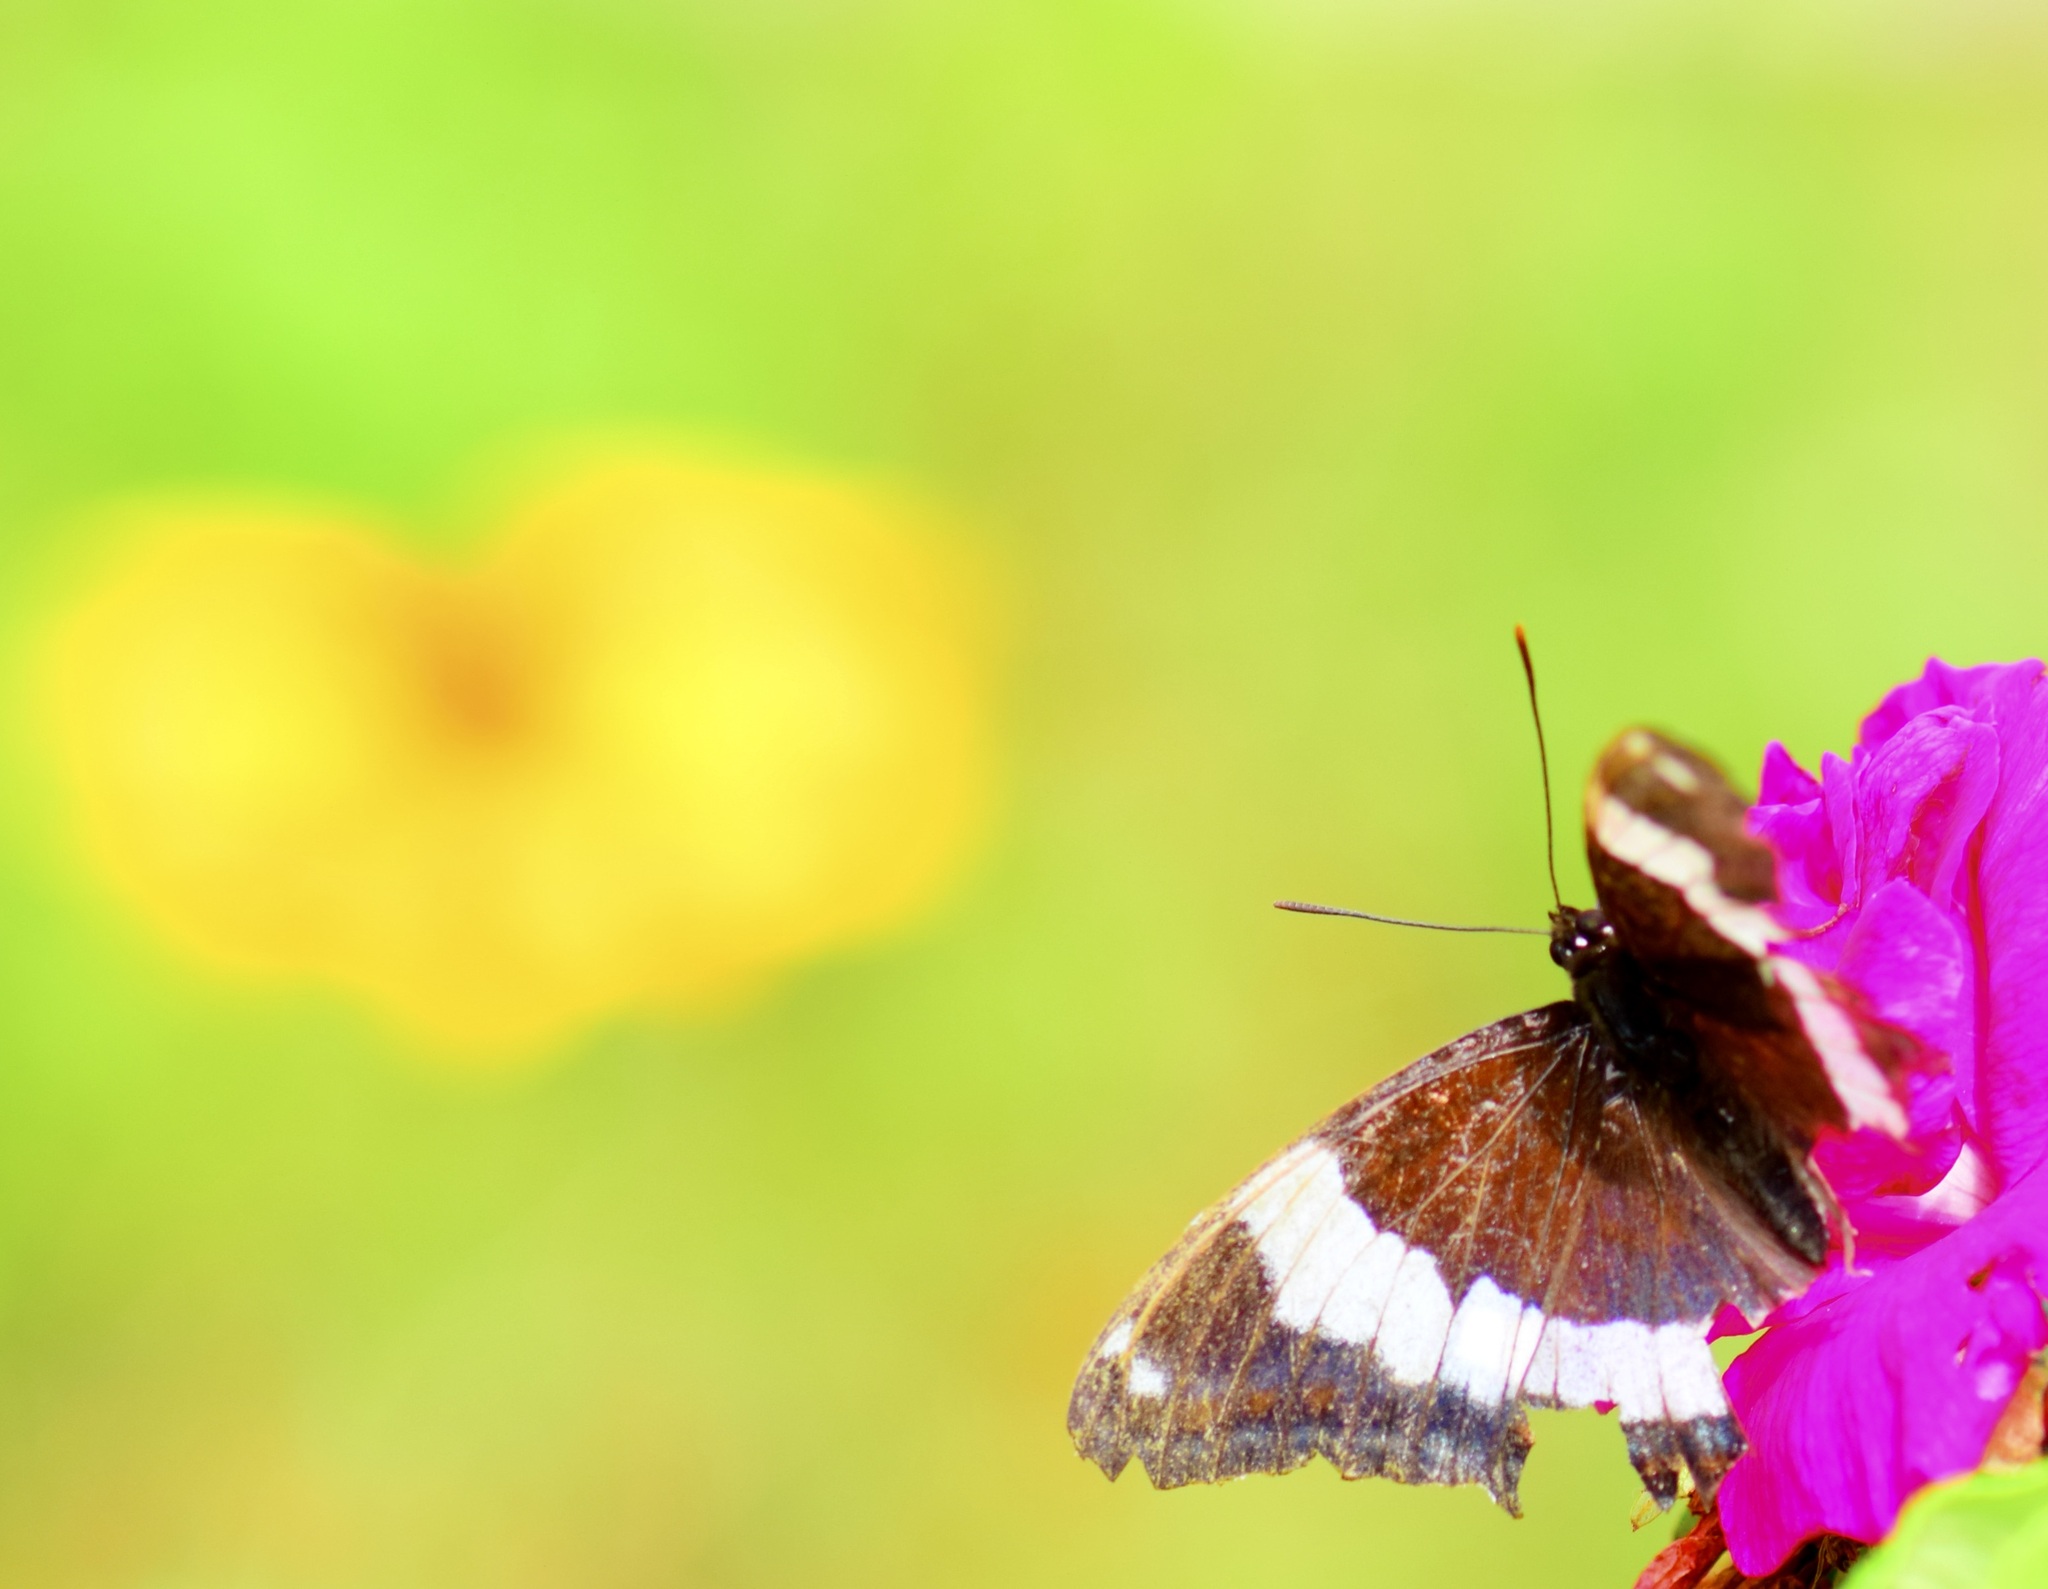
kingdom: Animalia
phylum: Arthropoda
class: Insecta
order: Lepidoptera
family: Nymphalidae
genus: Limenitis
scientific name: Limenitis arthemis
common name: Red-spotted admiral
